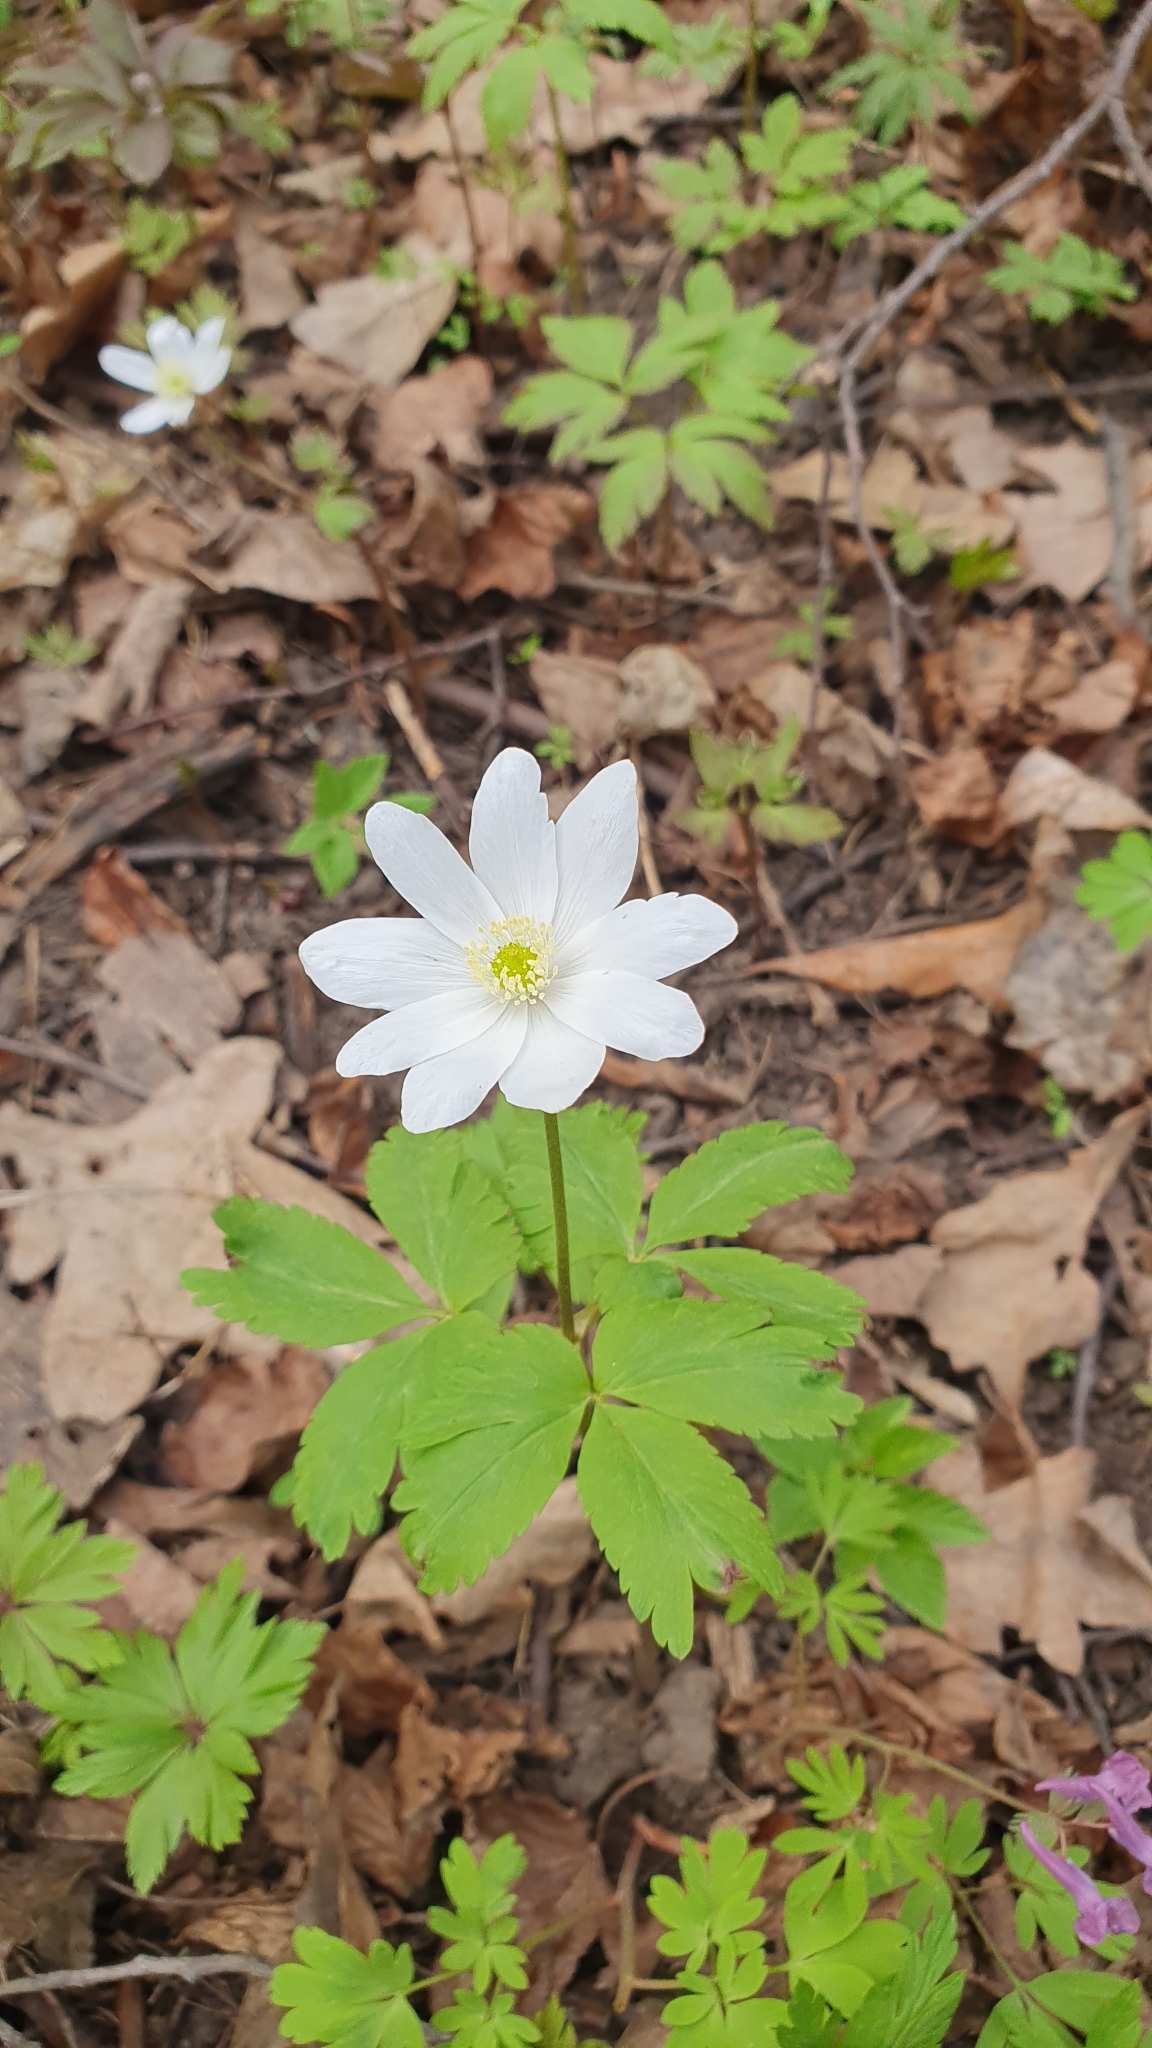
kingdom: Plantae
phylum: Tracheophyta
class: Magnoliopsida
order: Ranunculales
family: Ranunculaceae
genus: Anemone
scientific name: Anemone altaica
